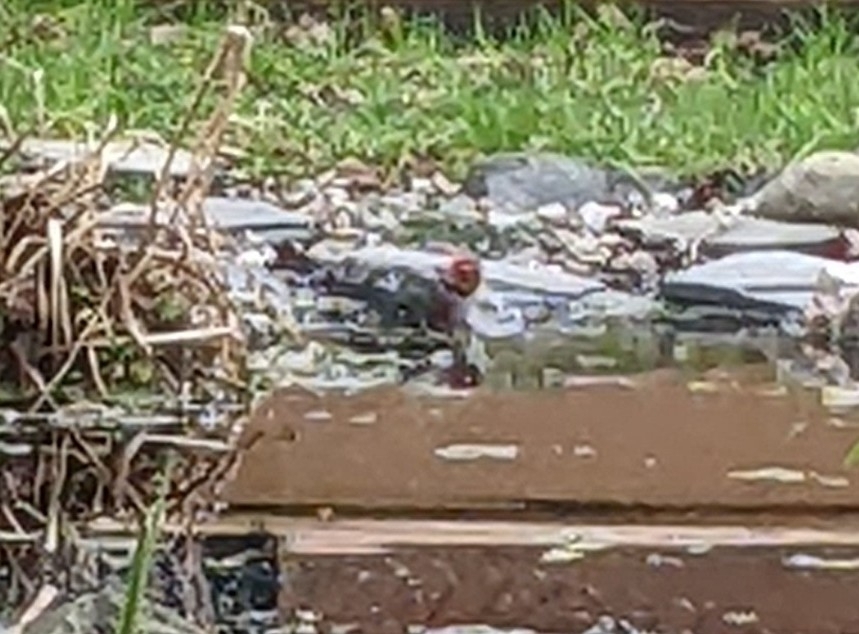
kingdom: Animalia
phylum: Chordata
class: Aves
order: Piciformes
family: Picidae
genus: Sphyrapicus
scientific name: Sphyrapicus ruber
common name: Red-breasted sapsucker
